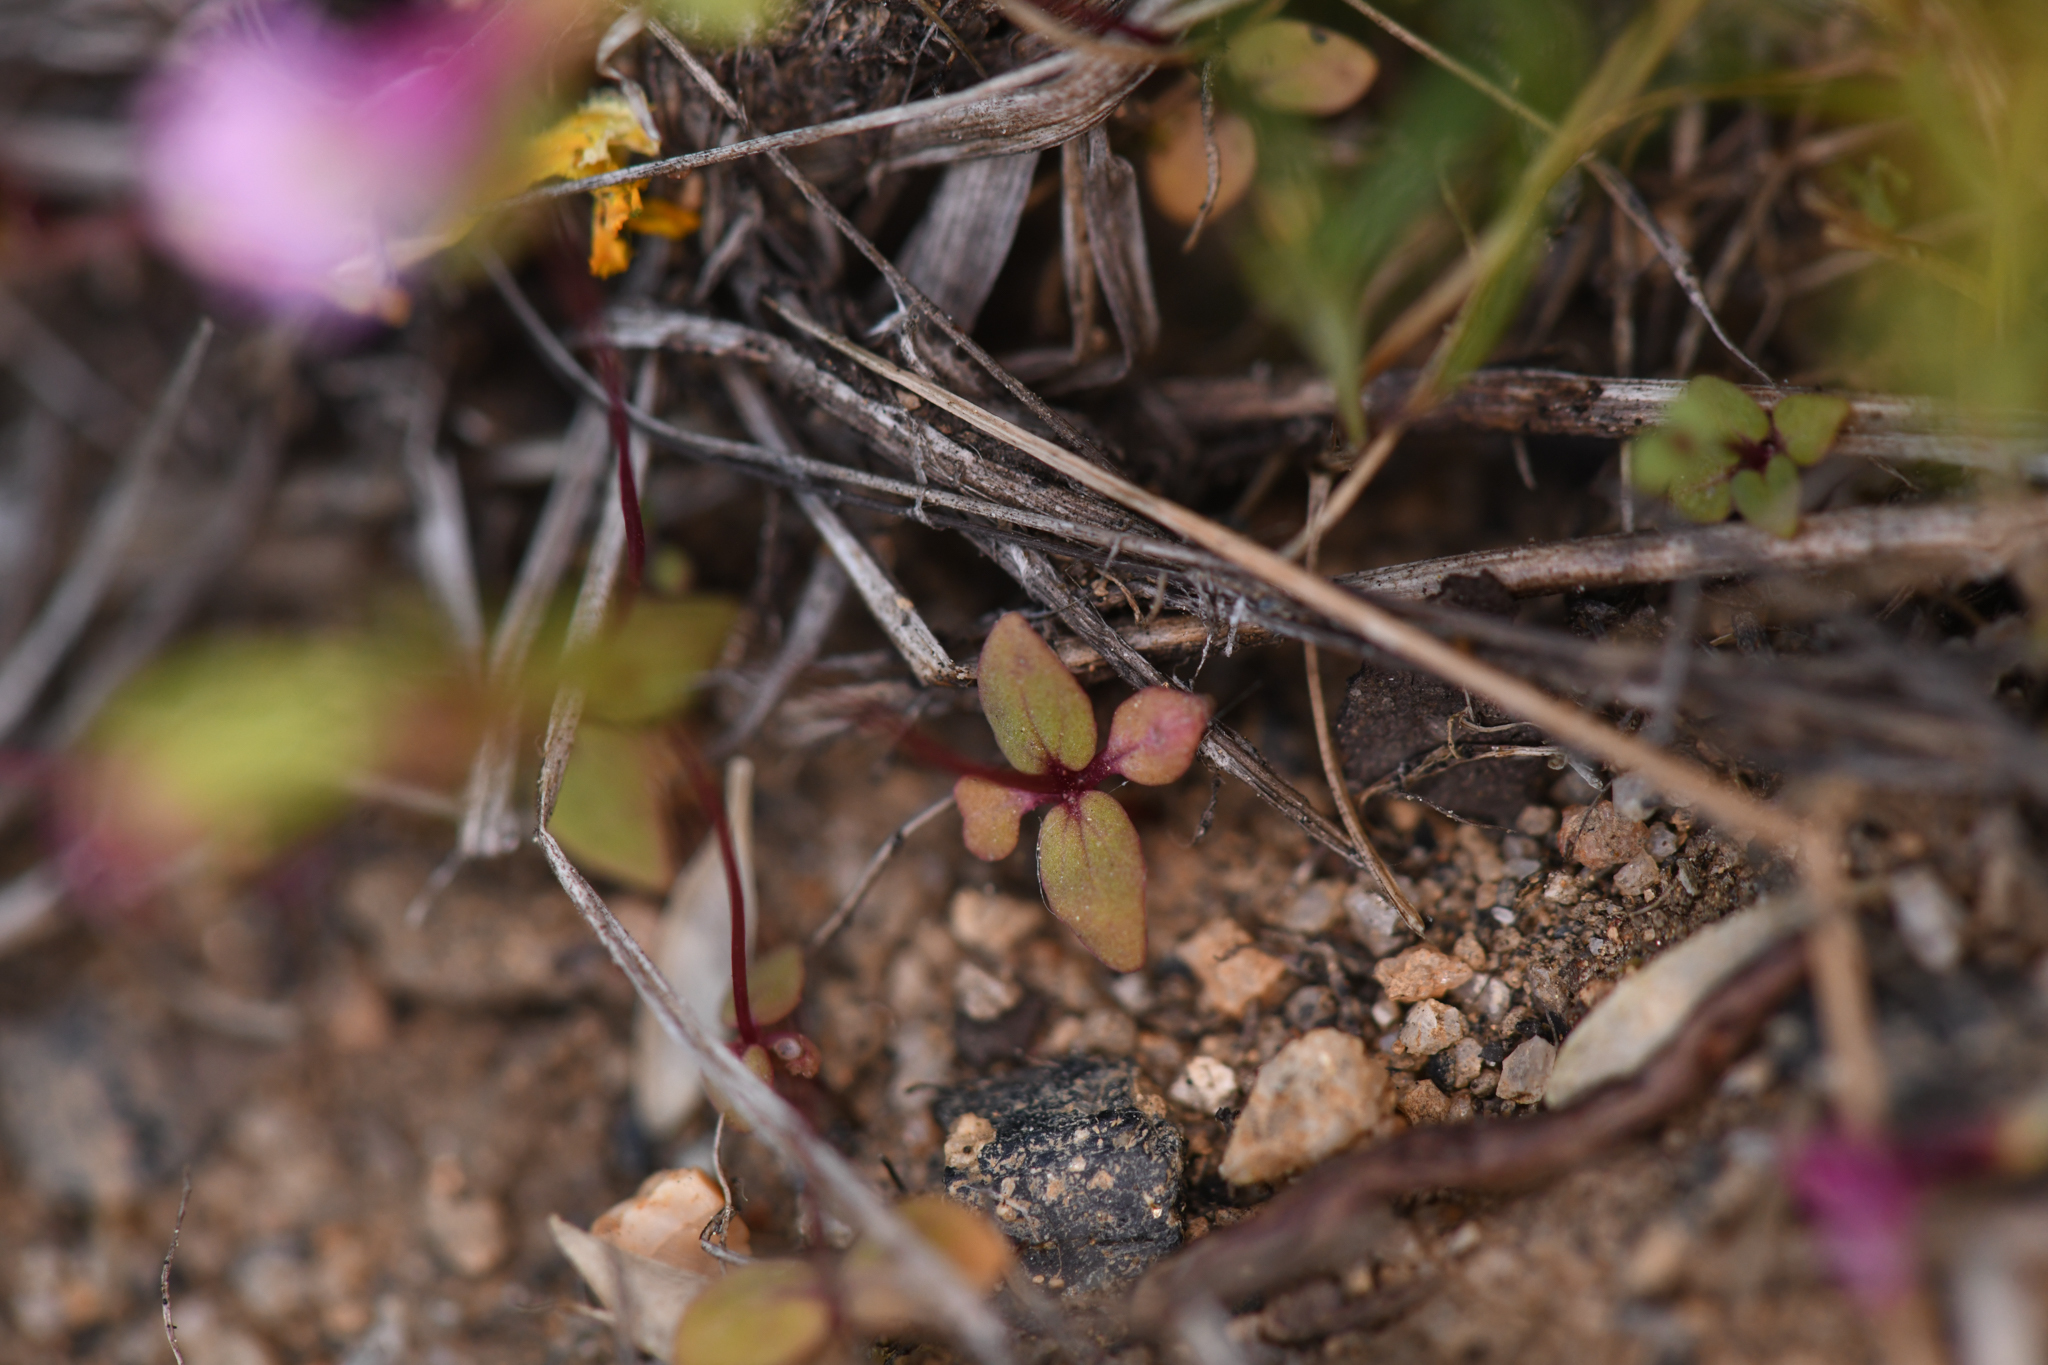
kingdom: Plantae
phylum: Tracheophyta
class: Magnoliopsida
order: Lamiales
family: Phrymaceae
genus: Erythranthe
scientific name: Erythranthe inconspicua
